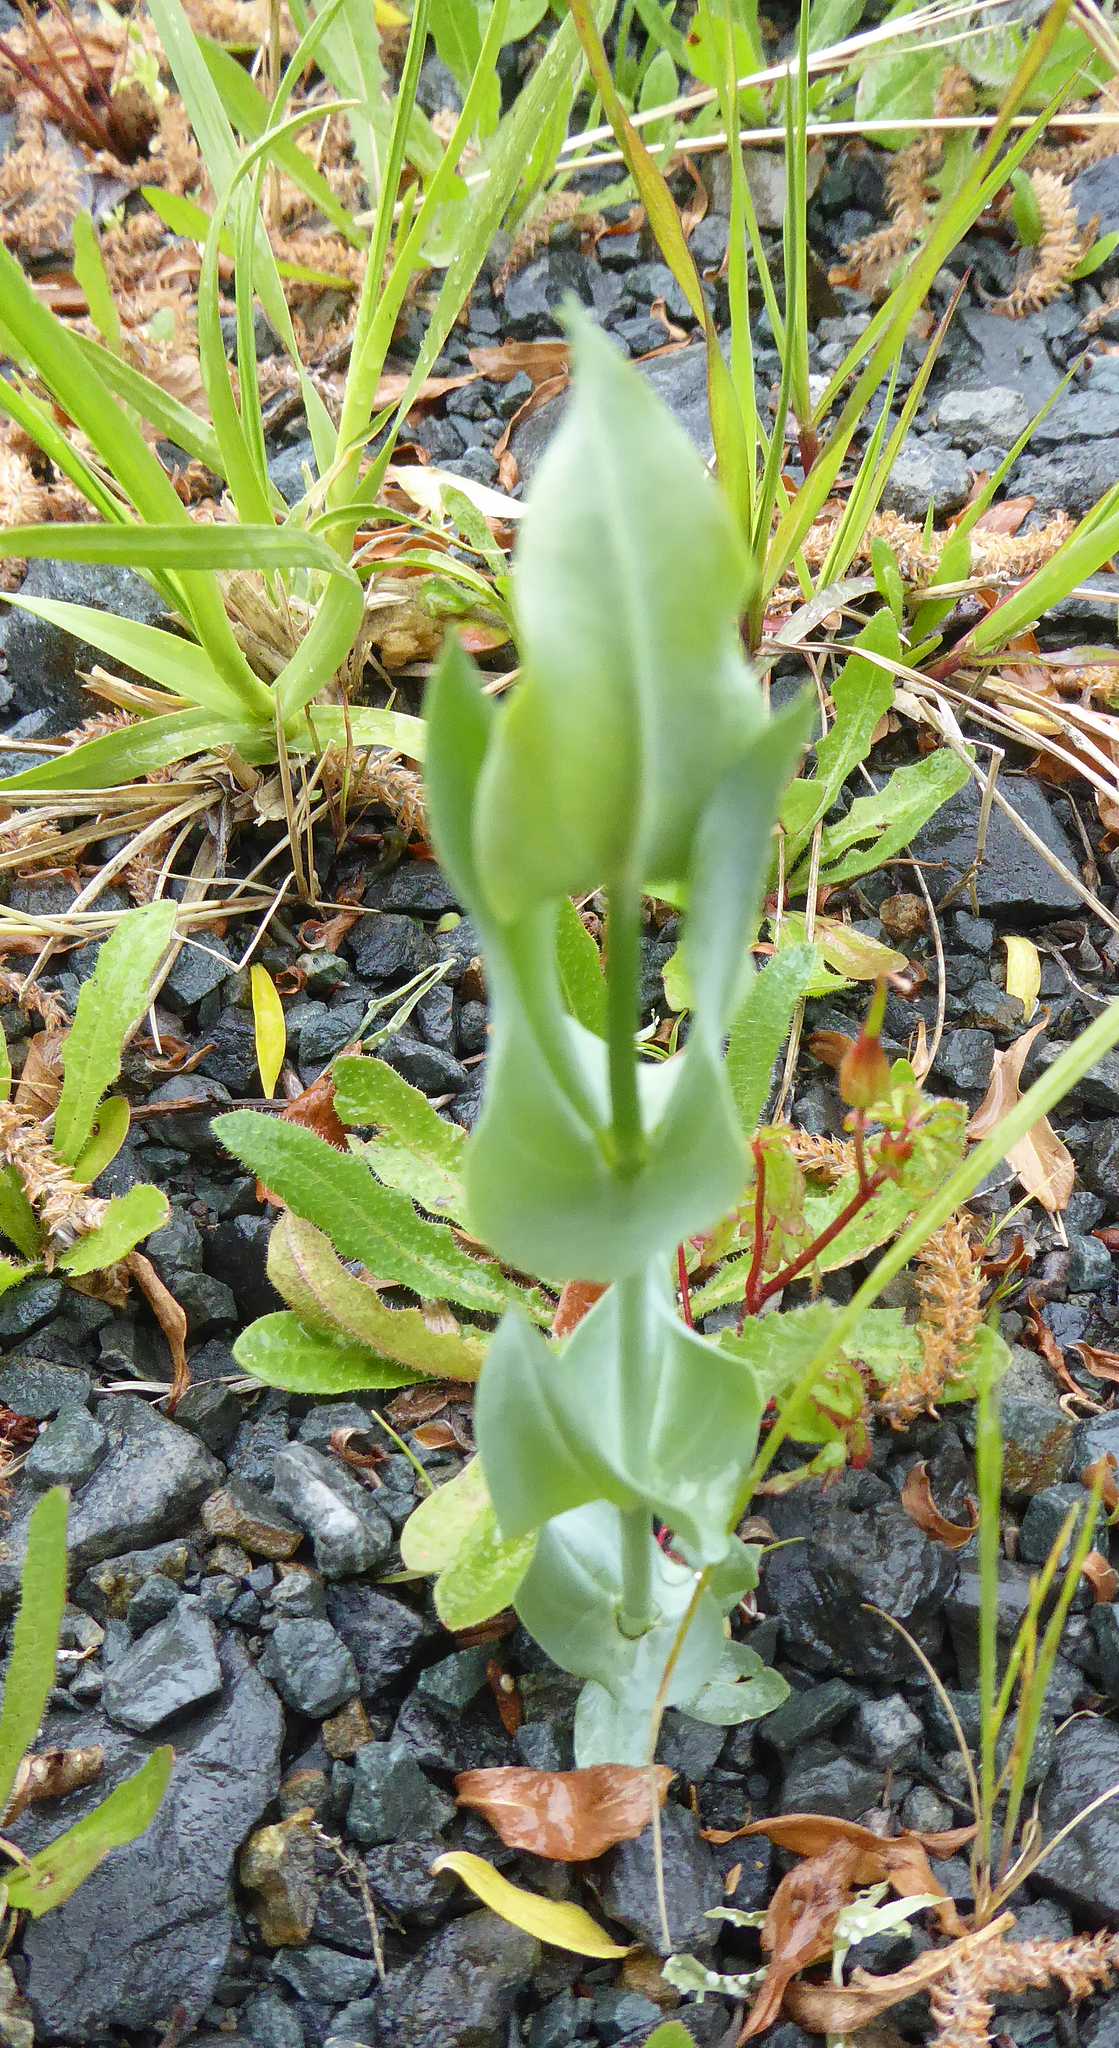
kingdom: Plantae
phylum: Tracheophyta
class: Magnoliopsida
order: Gentianales
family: Gentianaceae
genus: Blackstonia
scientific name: Blackstonia perfoliata
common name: Yellow-wort
